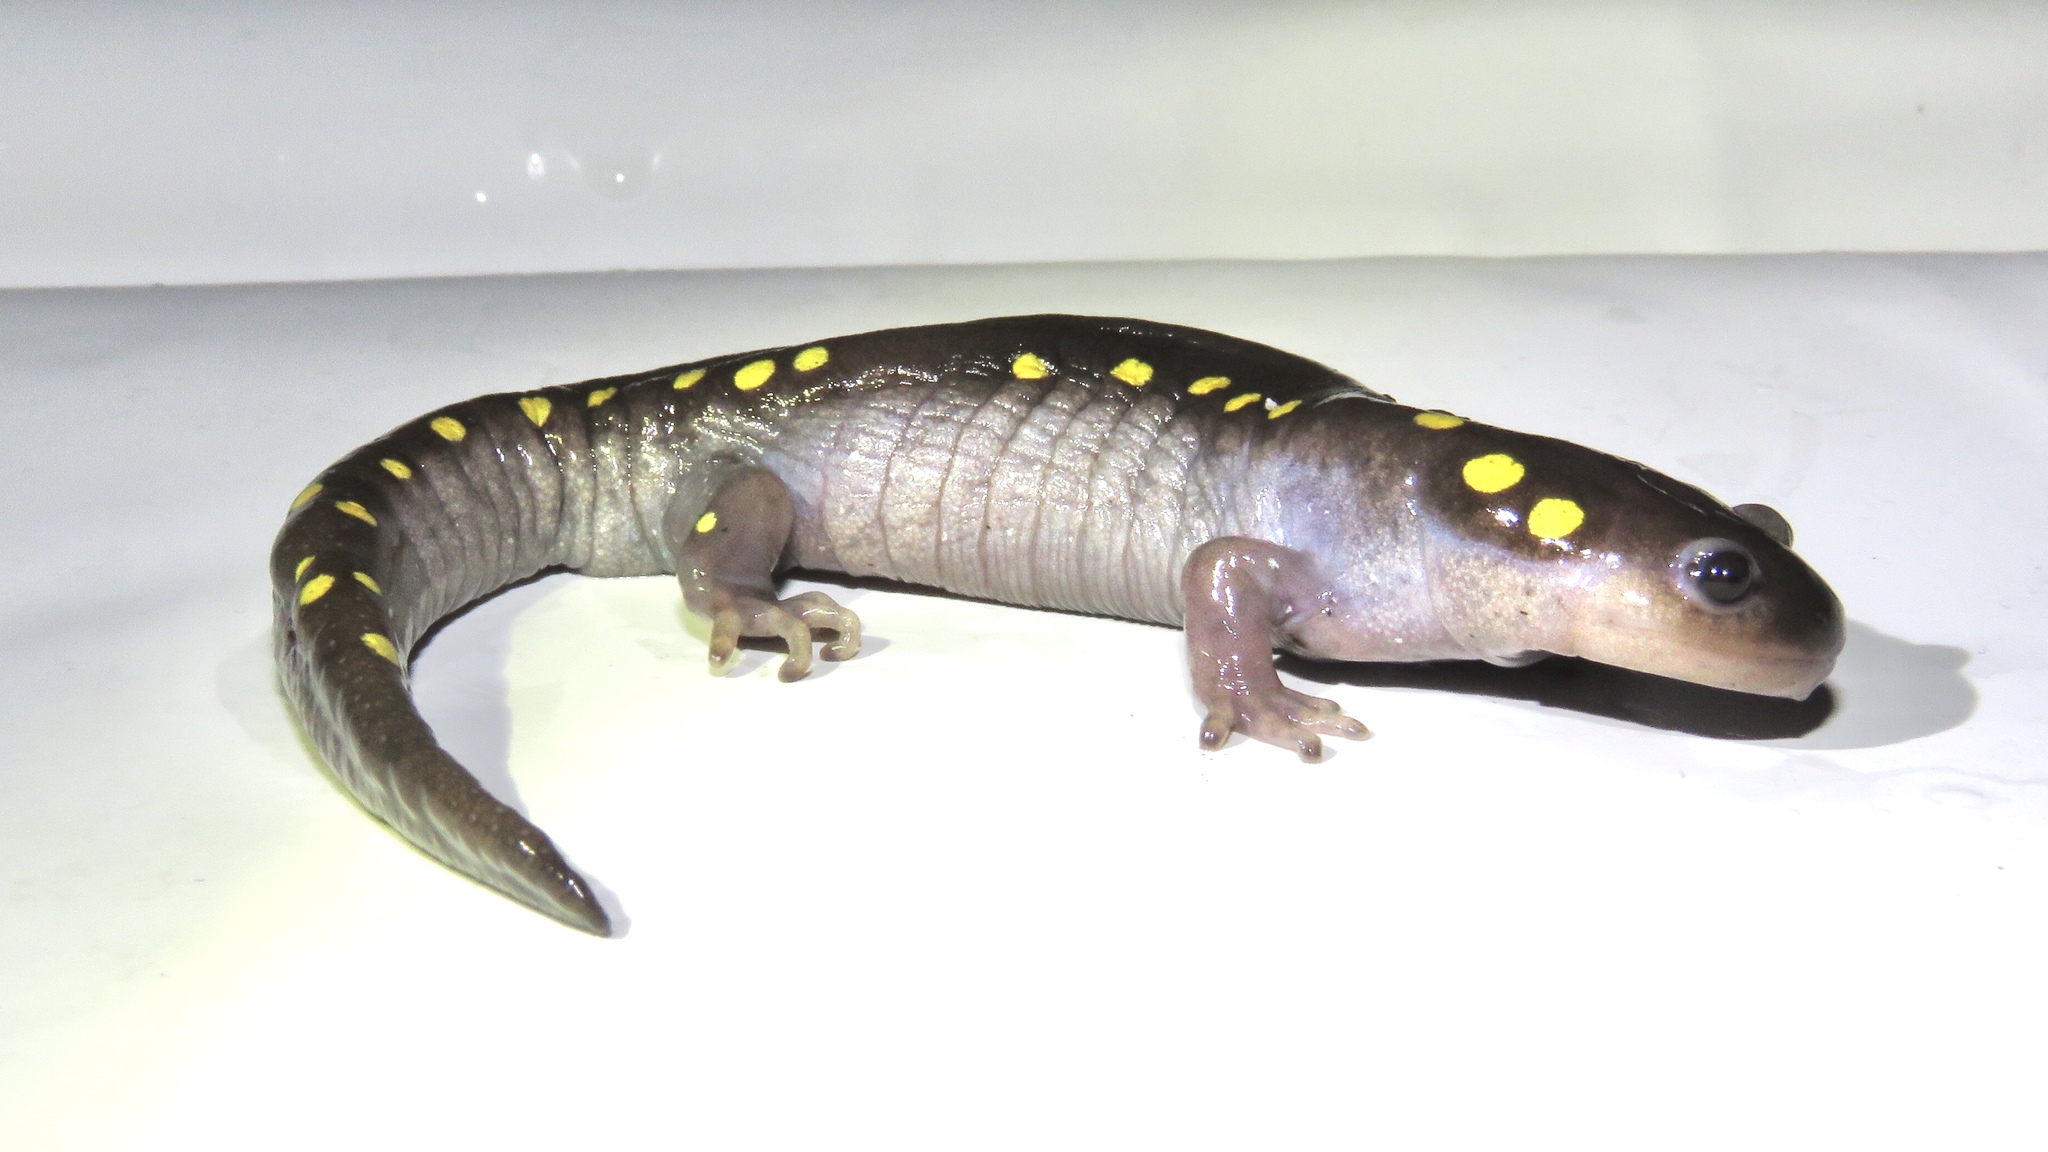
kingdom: Animalia
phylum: Chordata
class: Amphibia
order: Caudata
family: Ambystomatidae
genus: Ambystoma
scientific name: Ambystoma maculatum
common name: Spotted salamander
